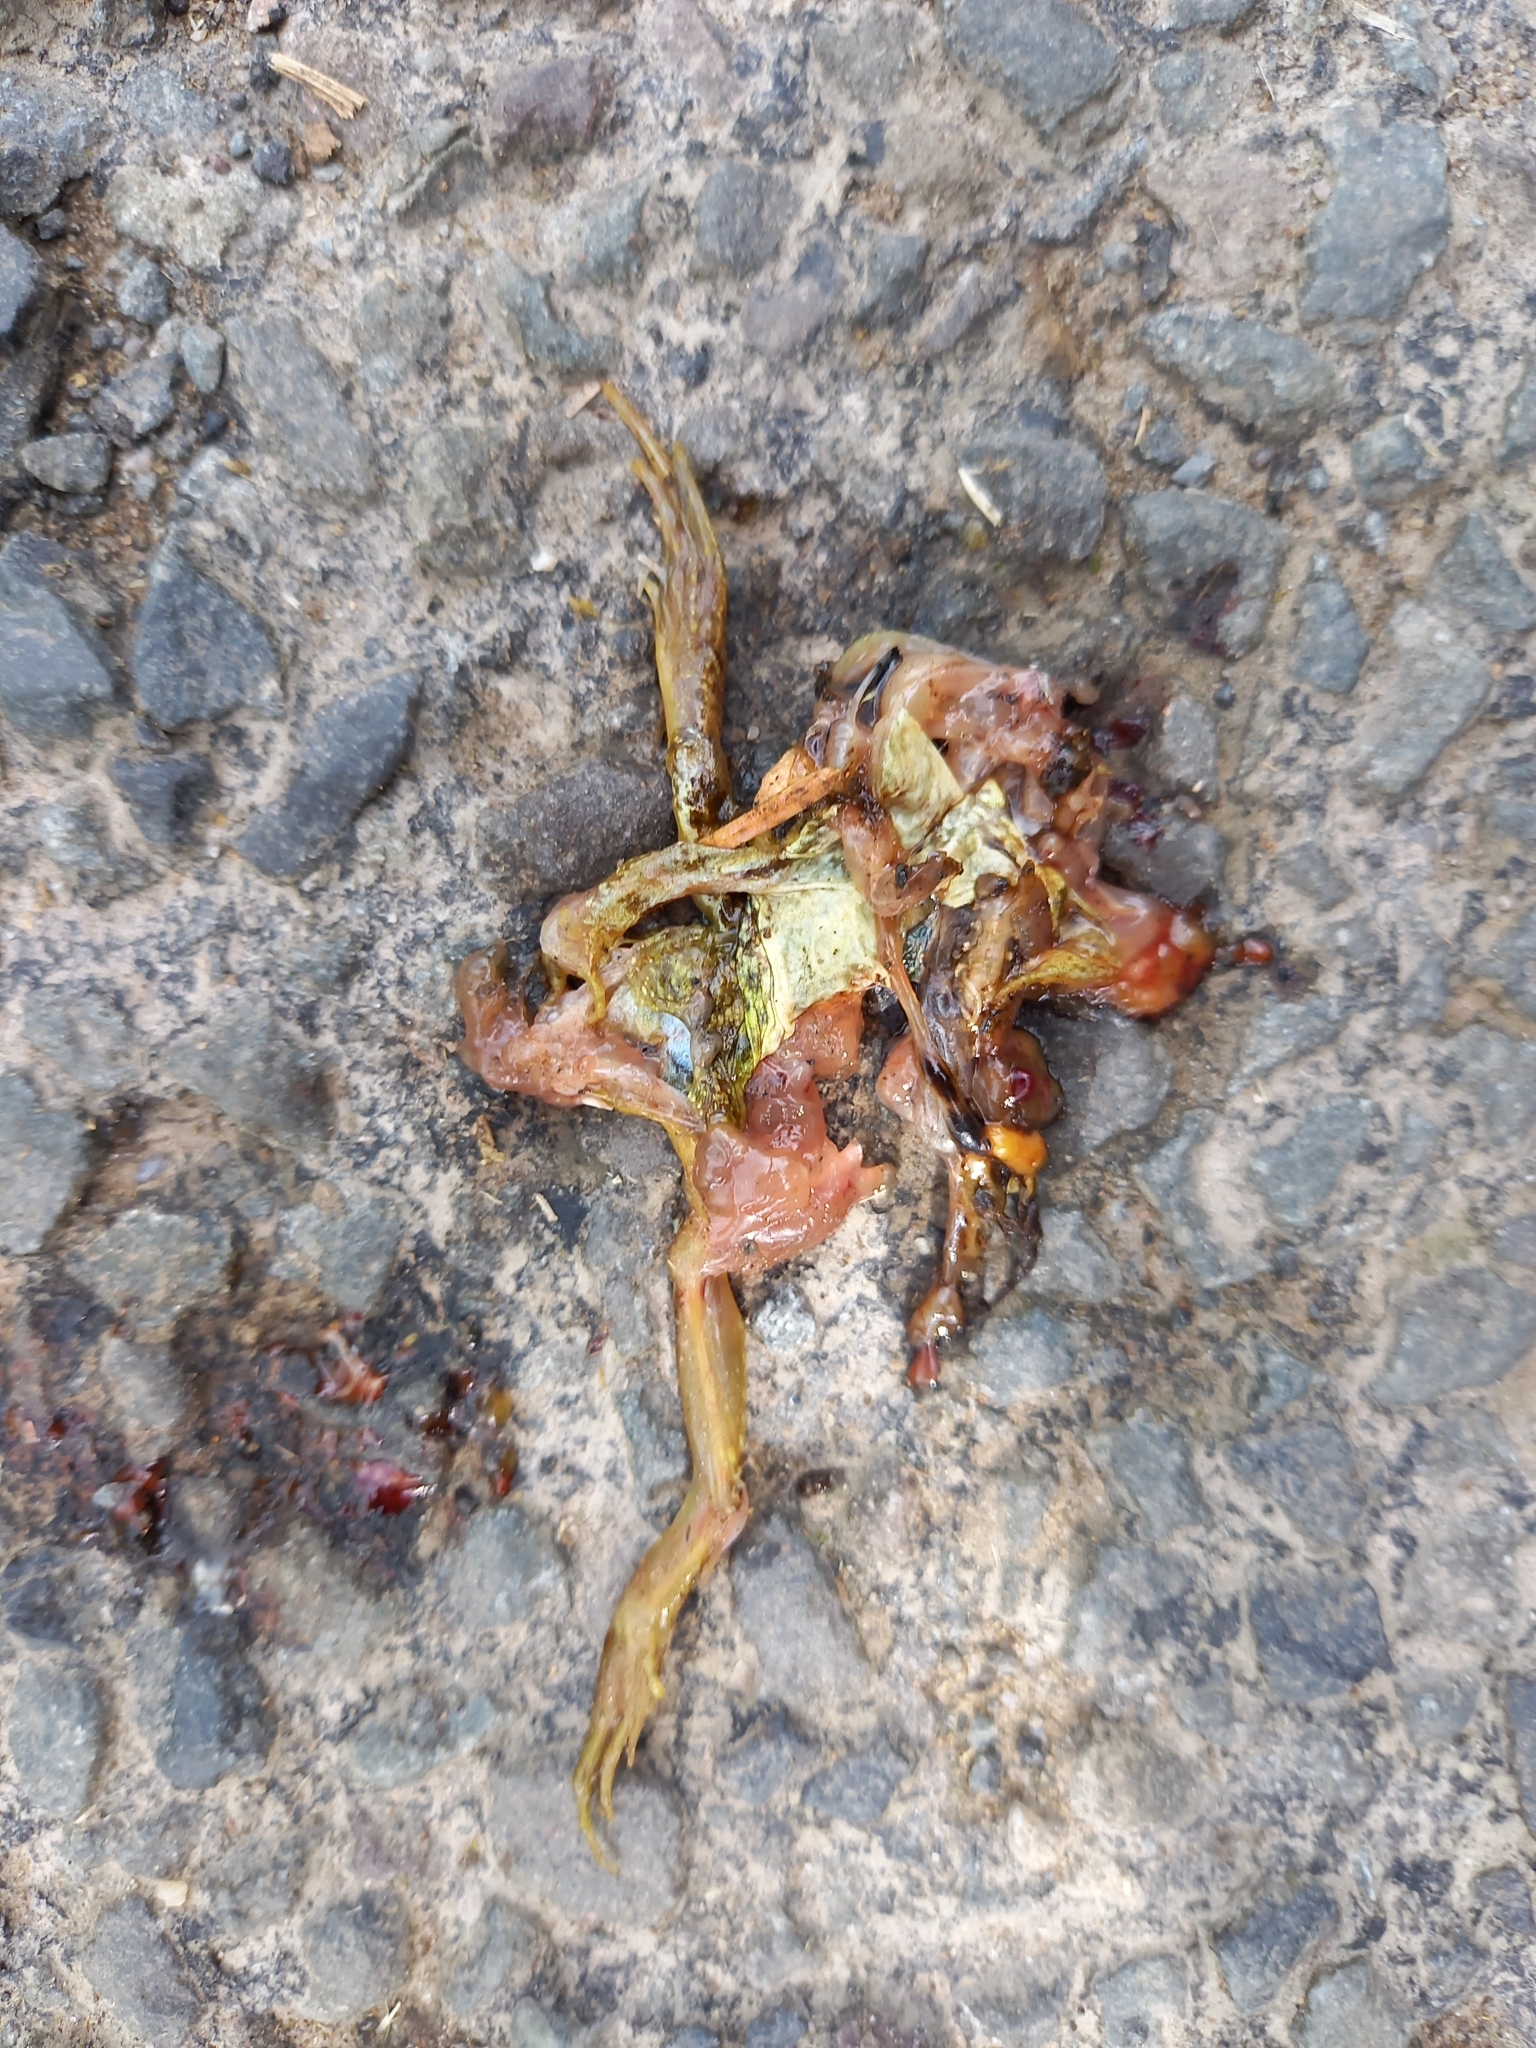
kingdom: Animalia
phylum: Chordata
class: Amphibia
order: Anura
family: Ranidae
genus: Rana
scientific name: Rana temporaria
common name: Common frog
